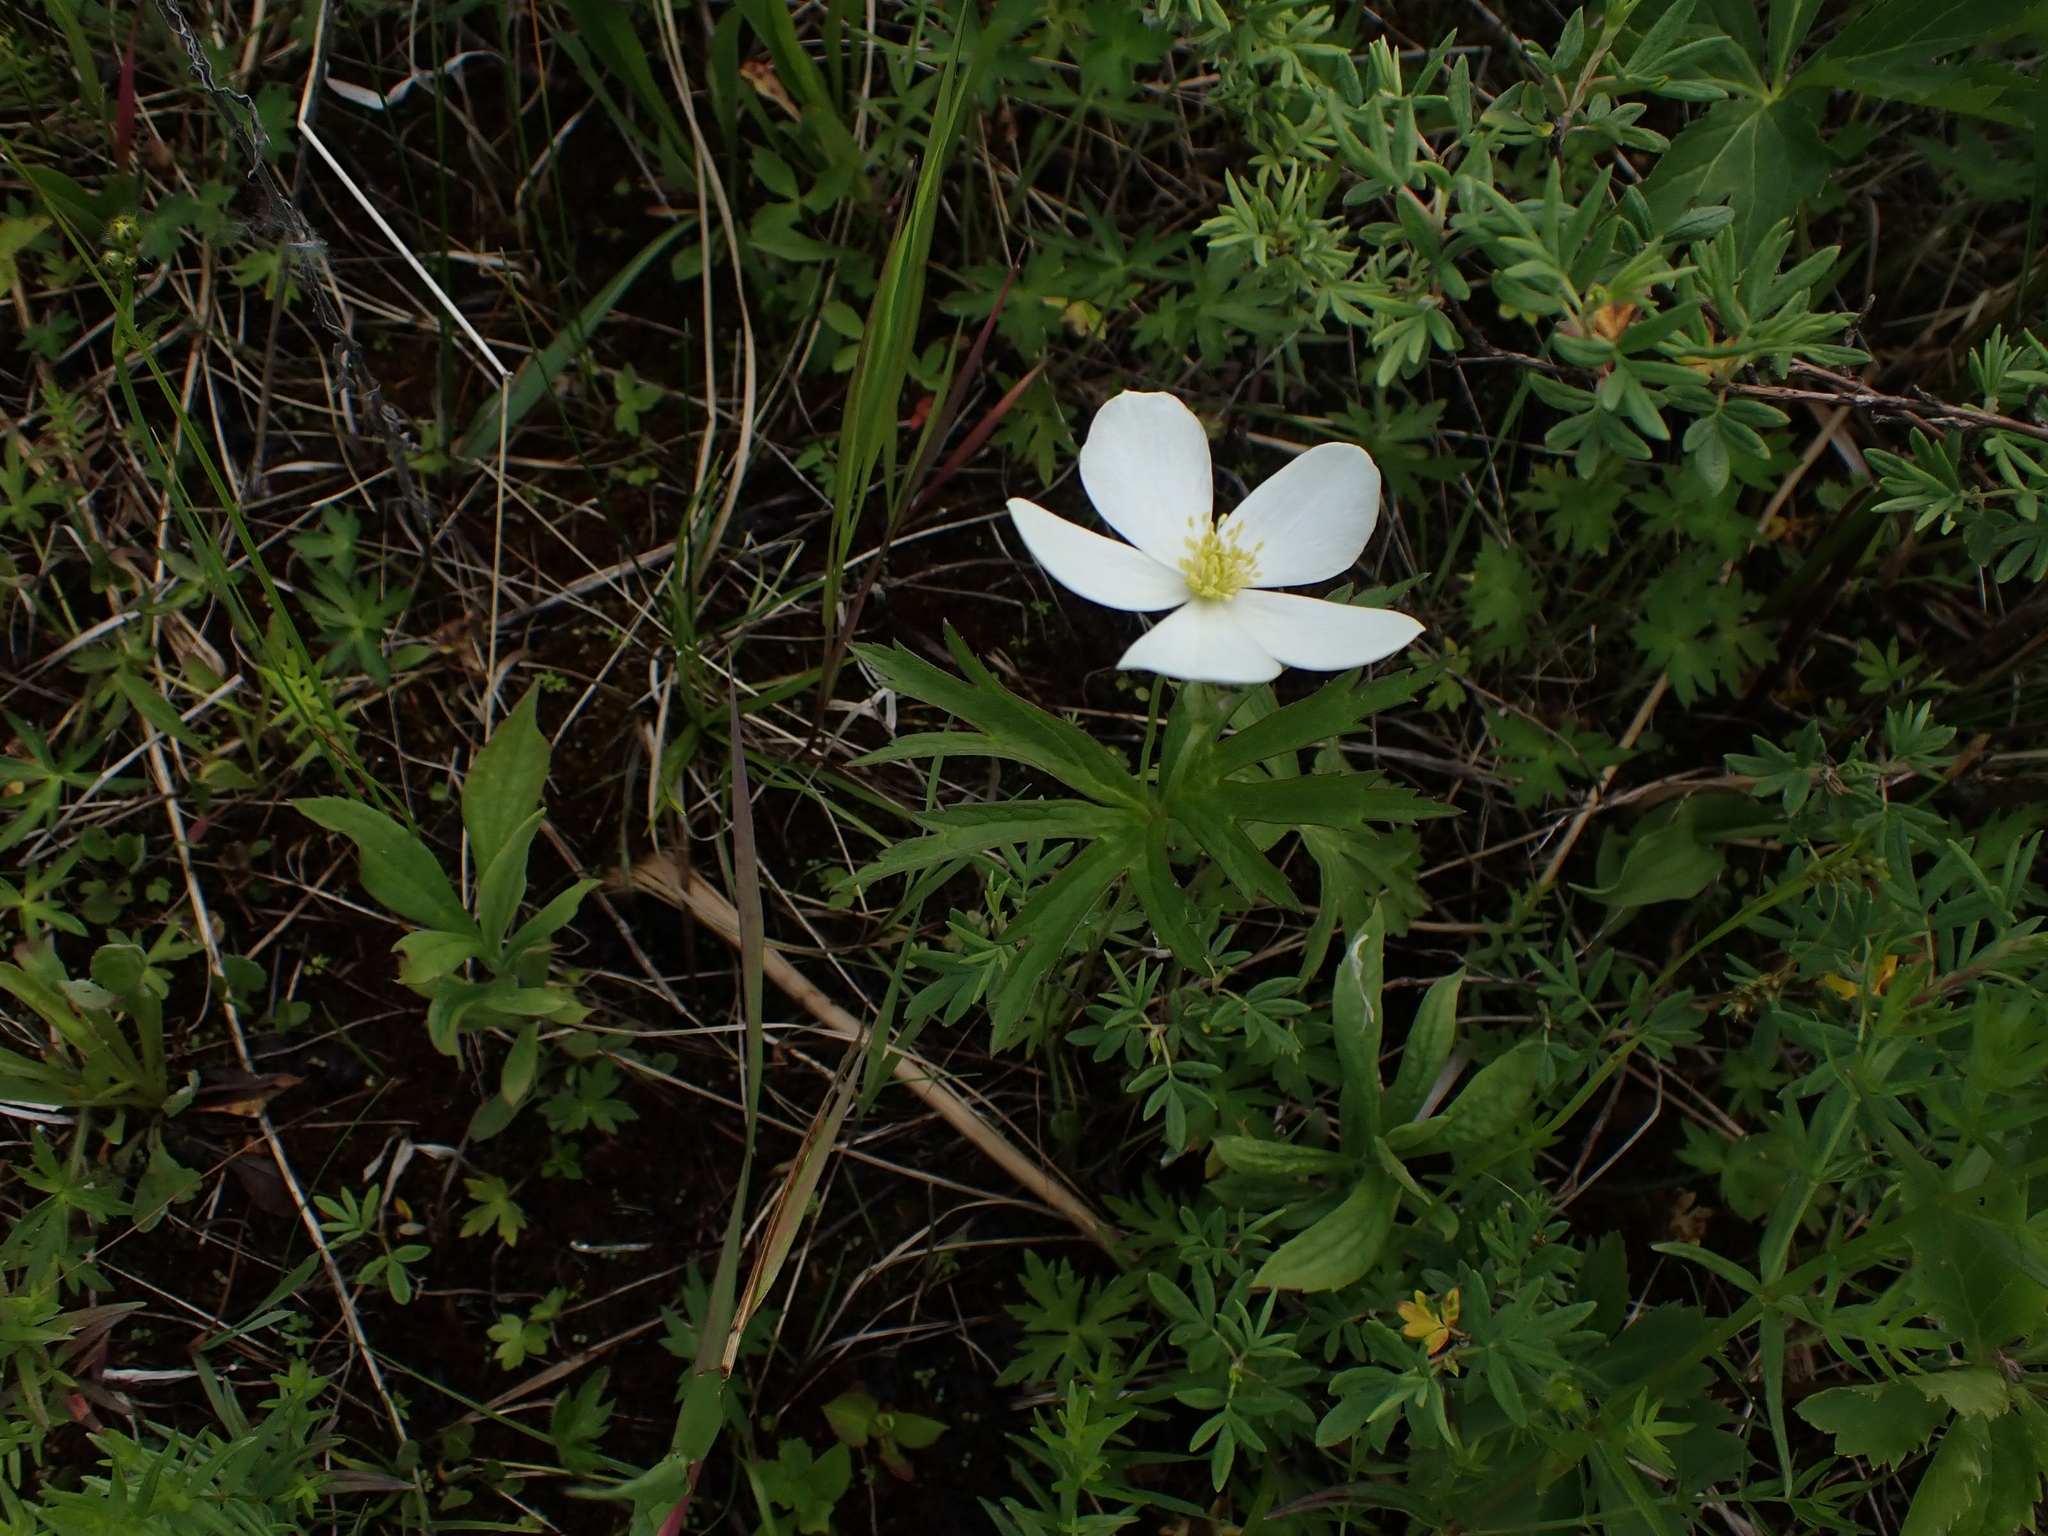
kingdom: Plantae
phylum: Tracheophyta
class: Magnoliopsida
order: Ranunculales
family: Ranunculaceae
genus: Anemonastrum
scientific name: Anemonastrum canadense
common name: Canada anemone
